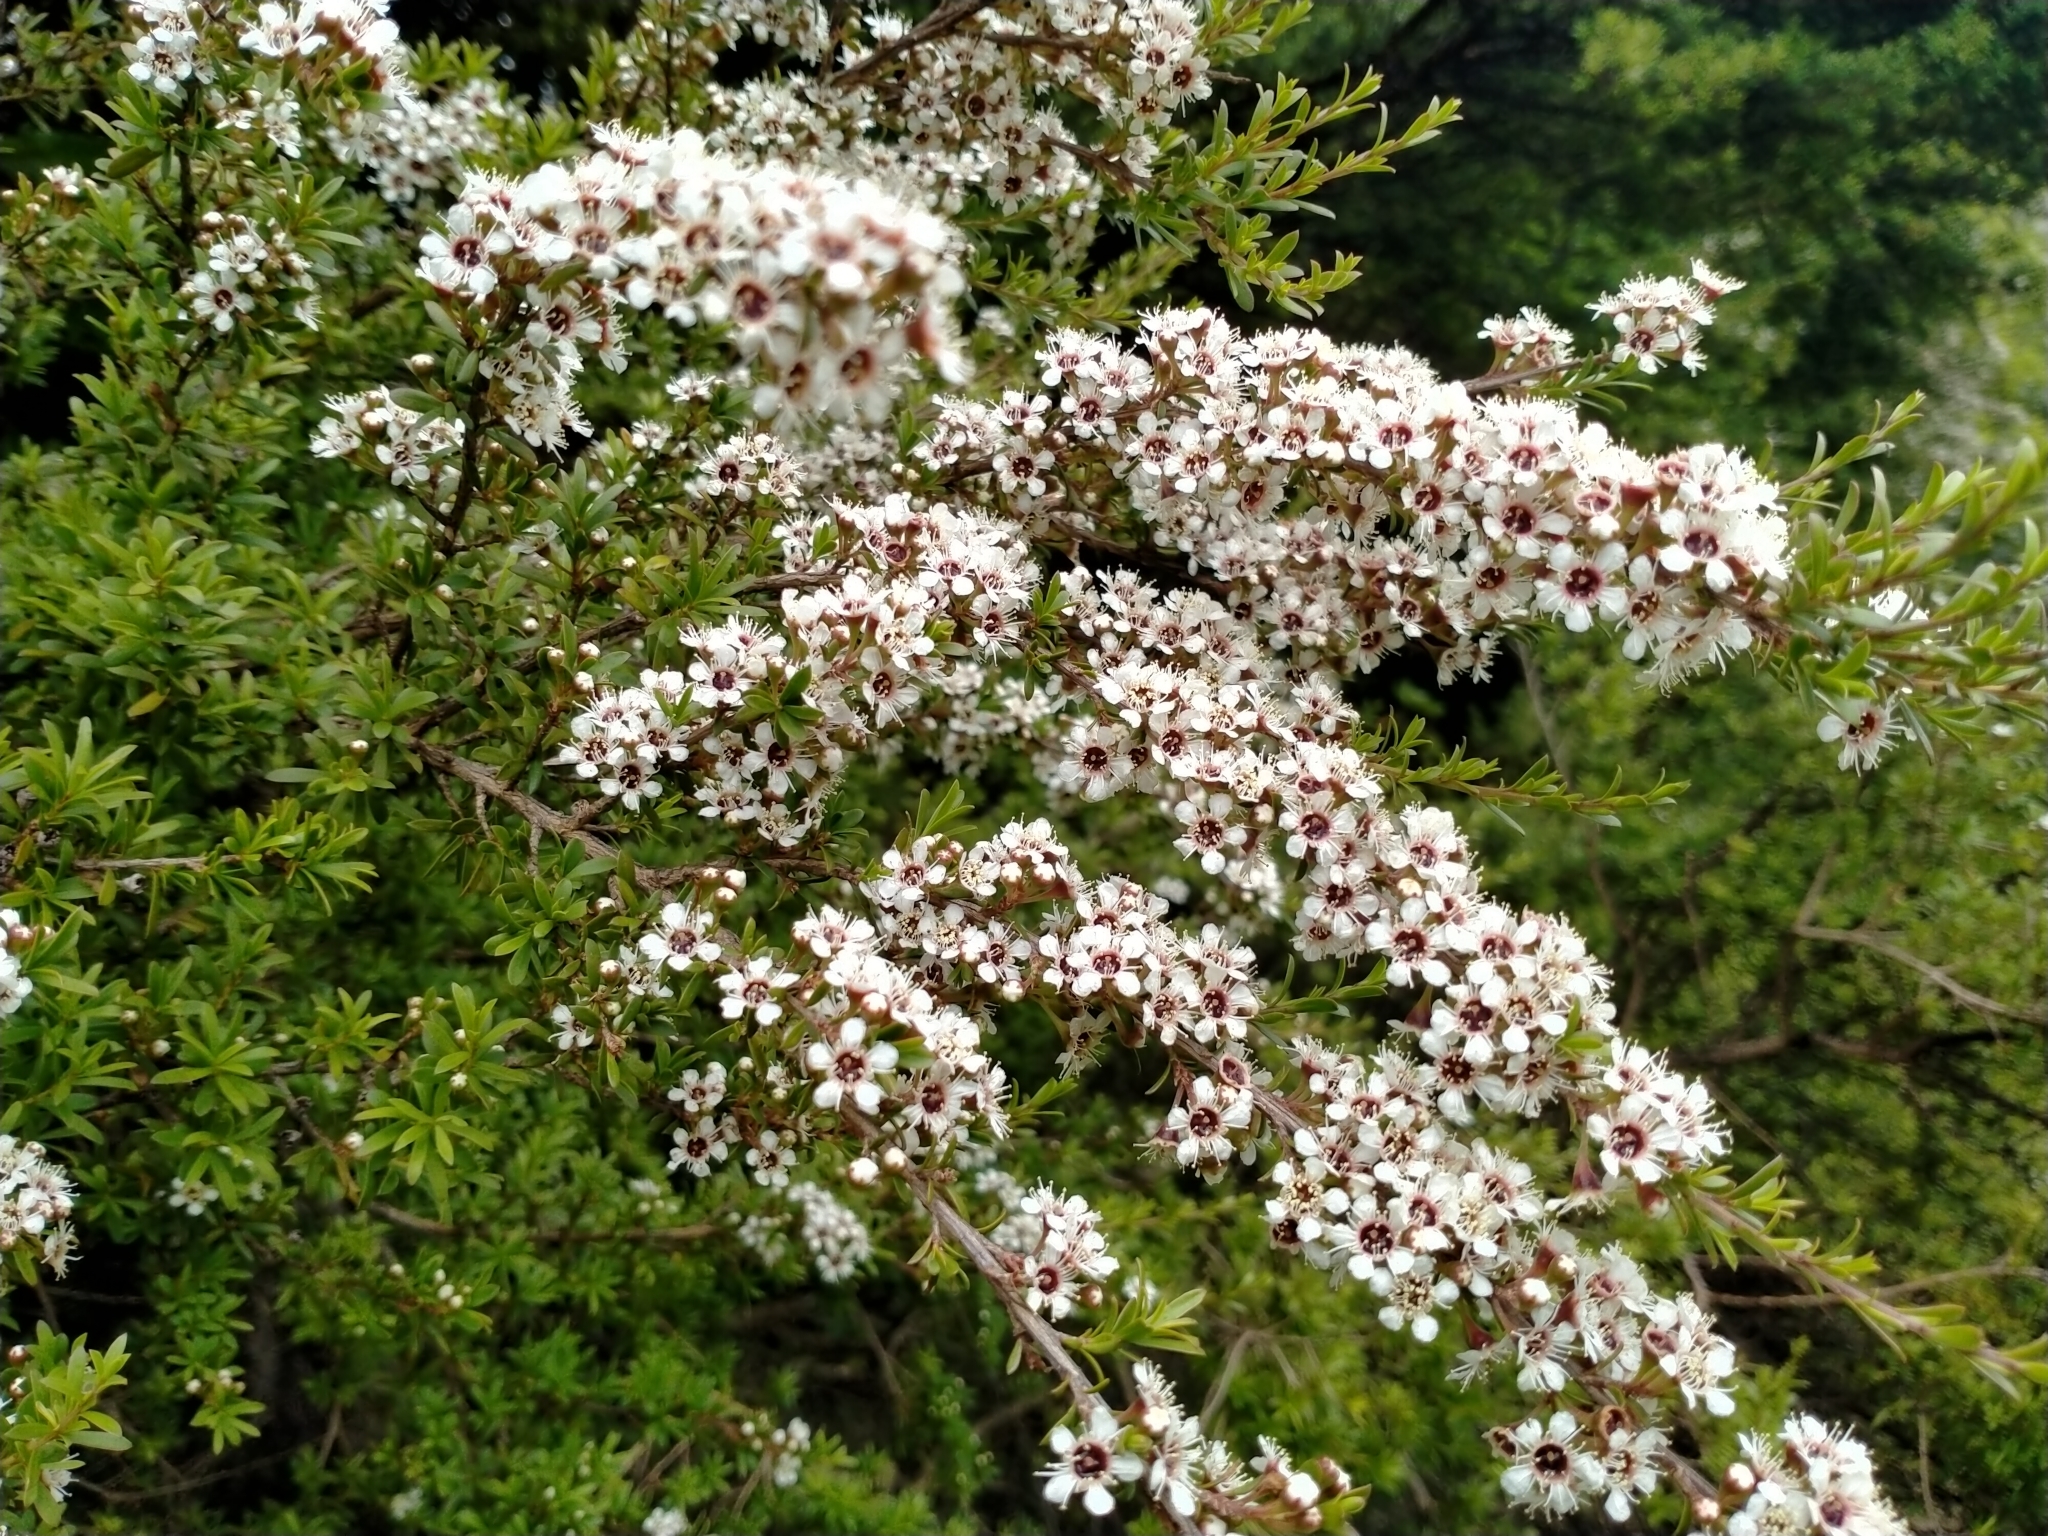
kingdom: Plantae
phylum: Tracheophyta
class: Magnoliopsida
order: Myrtales
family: Myrtaceae
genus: Kunzea
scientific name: Kunzea robusta
